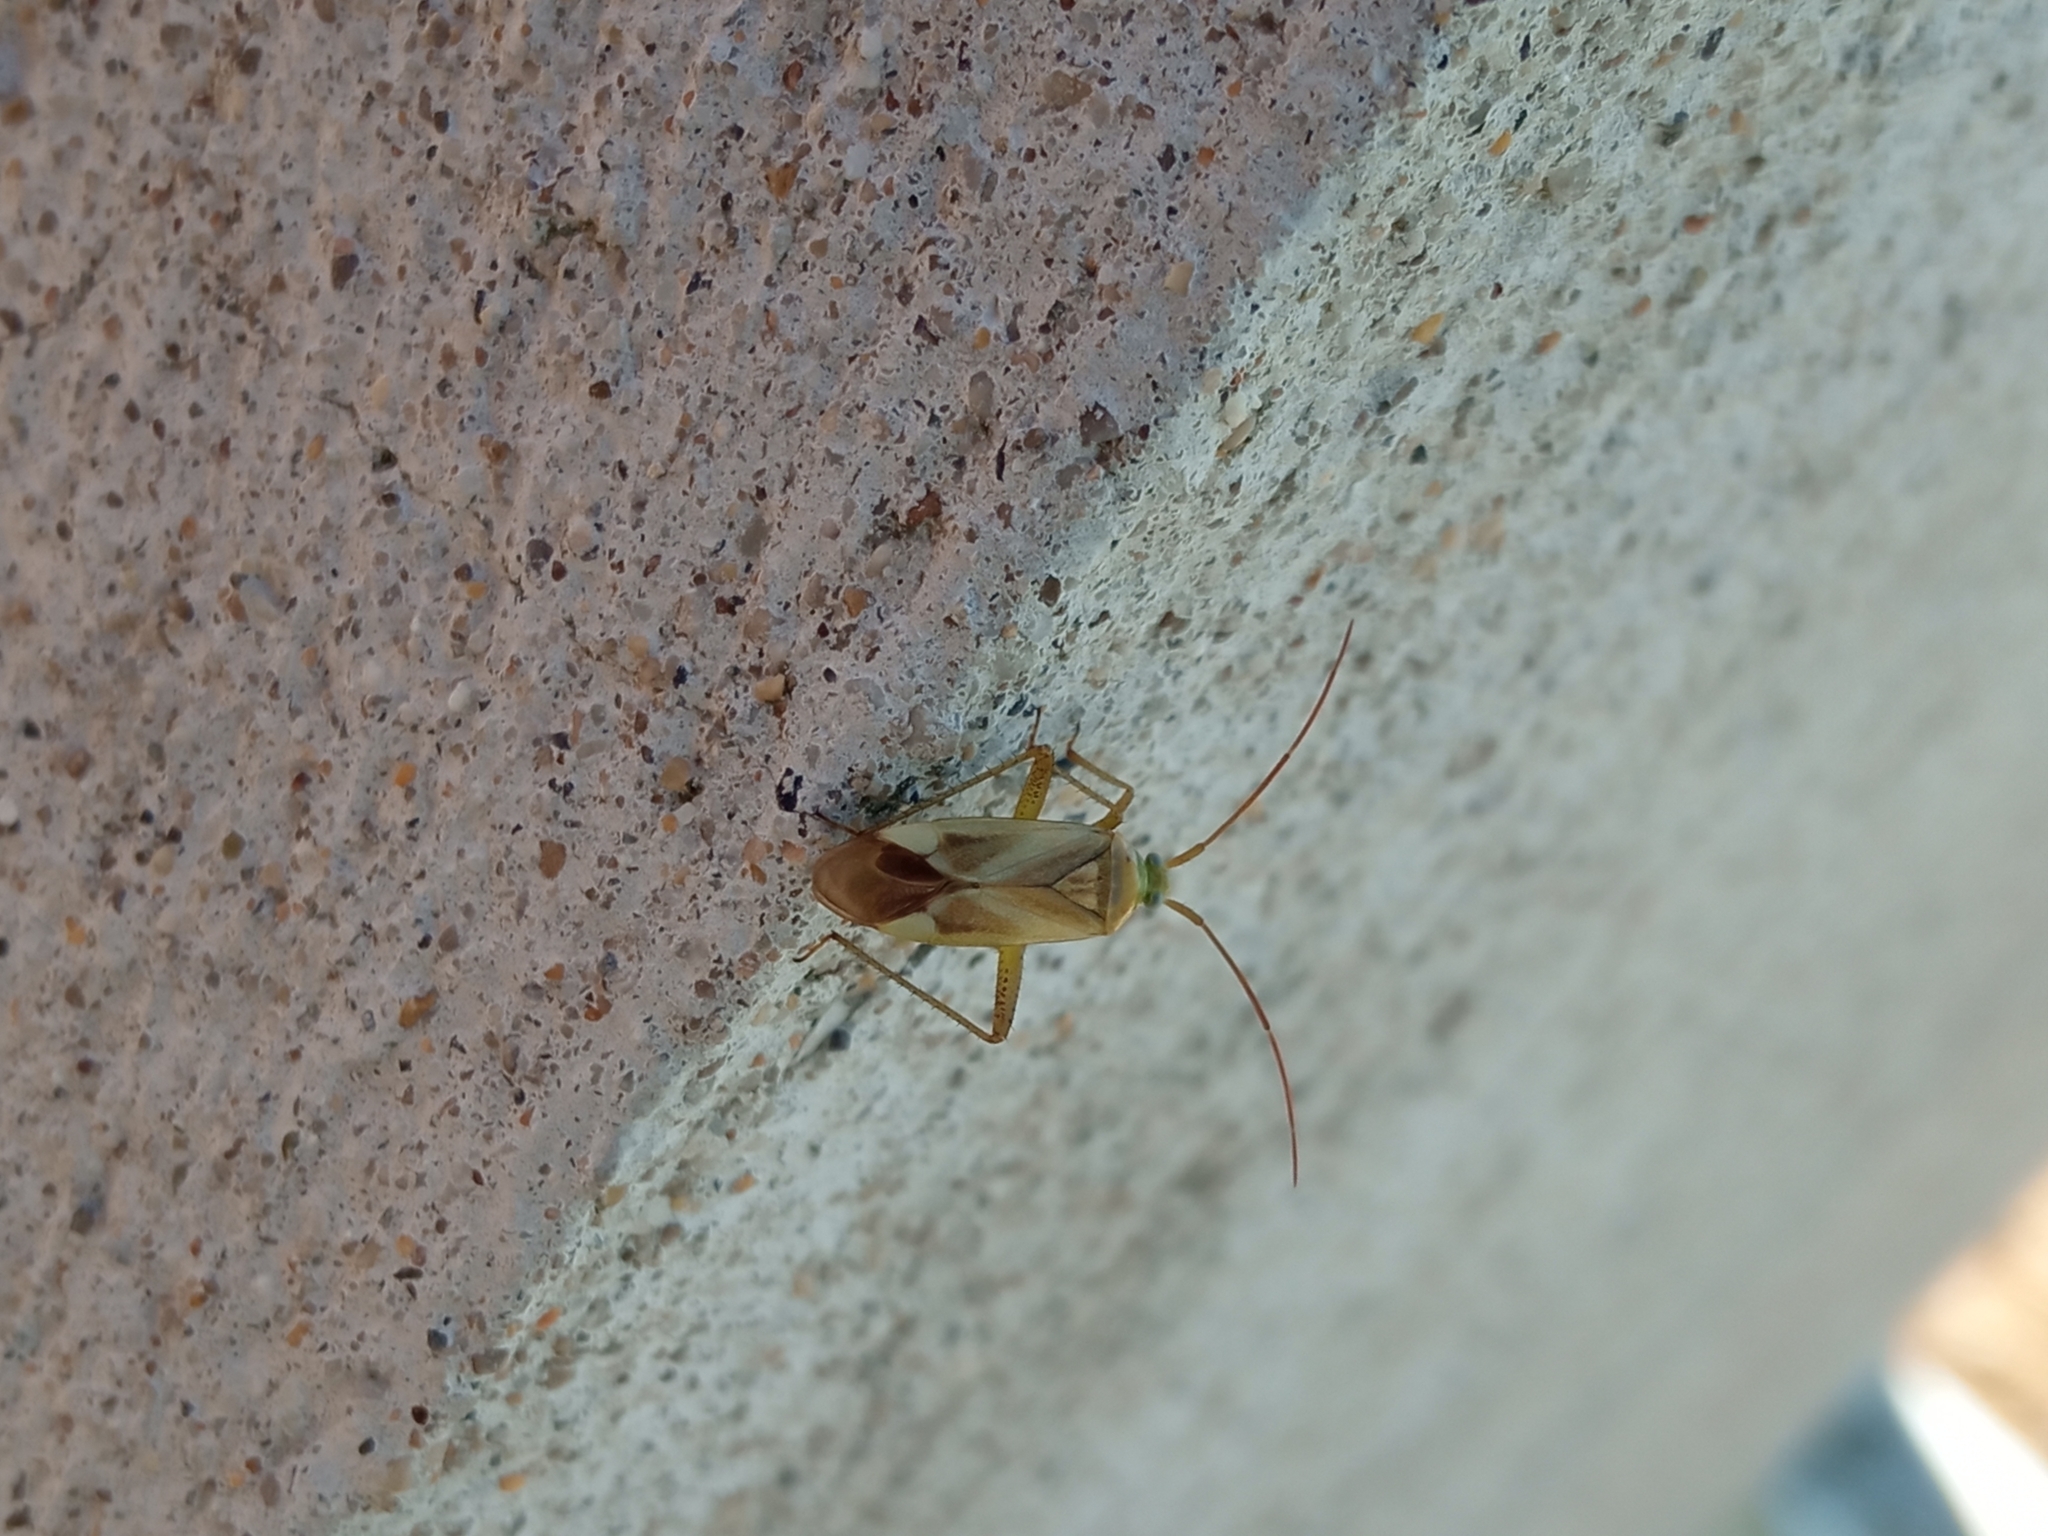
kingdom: Animalia
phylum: Arthropoda
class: Insecta
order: Hemiptera
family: Miridae
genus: Adelphocoris
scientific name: Adelphocoris lineolatus
